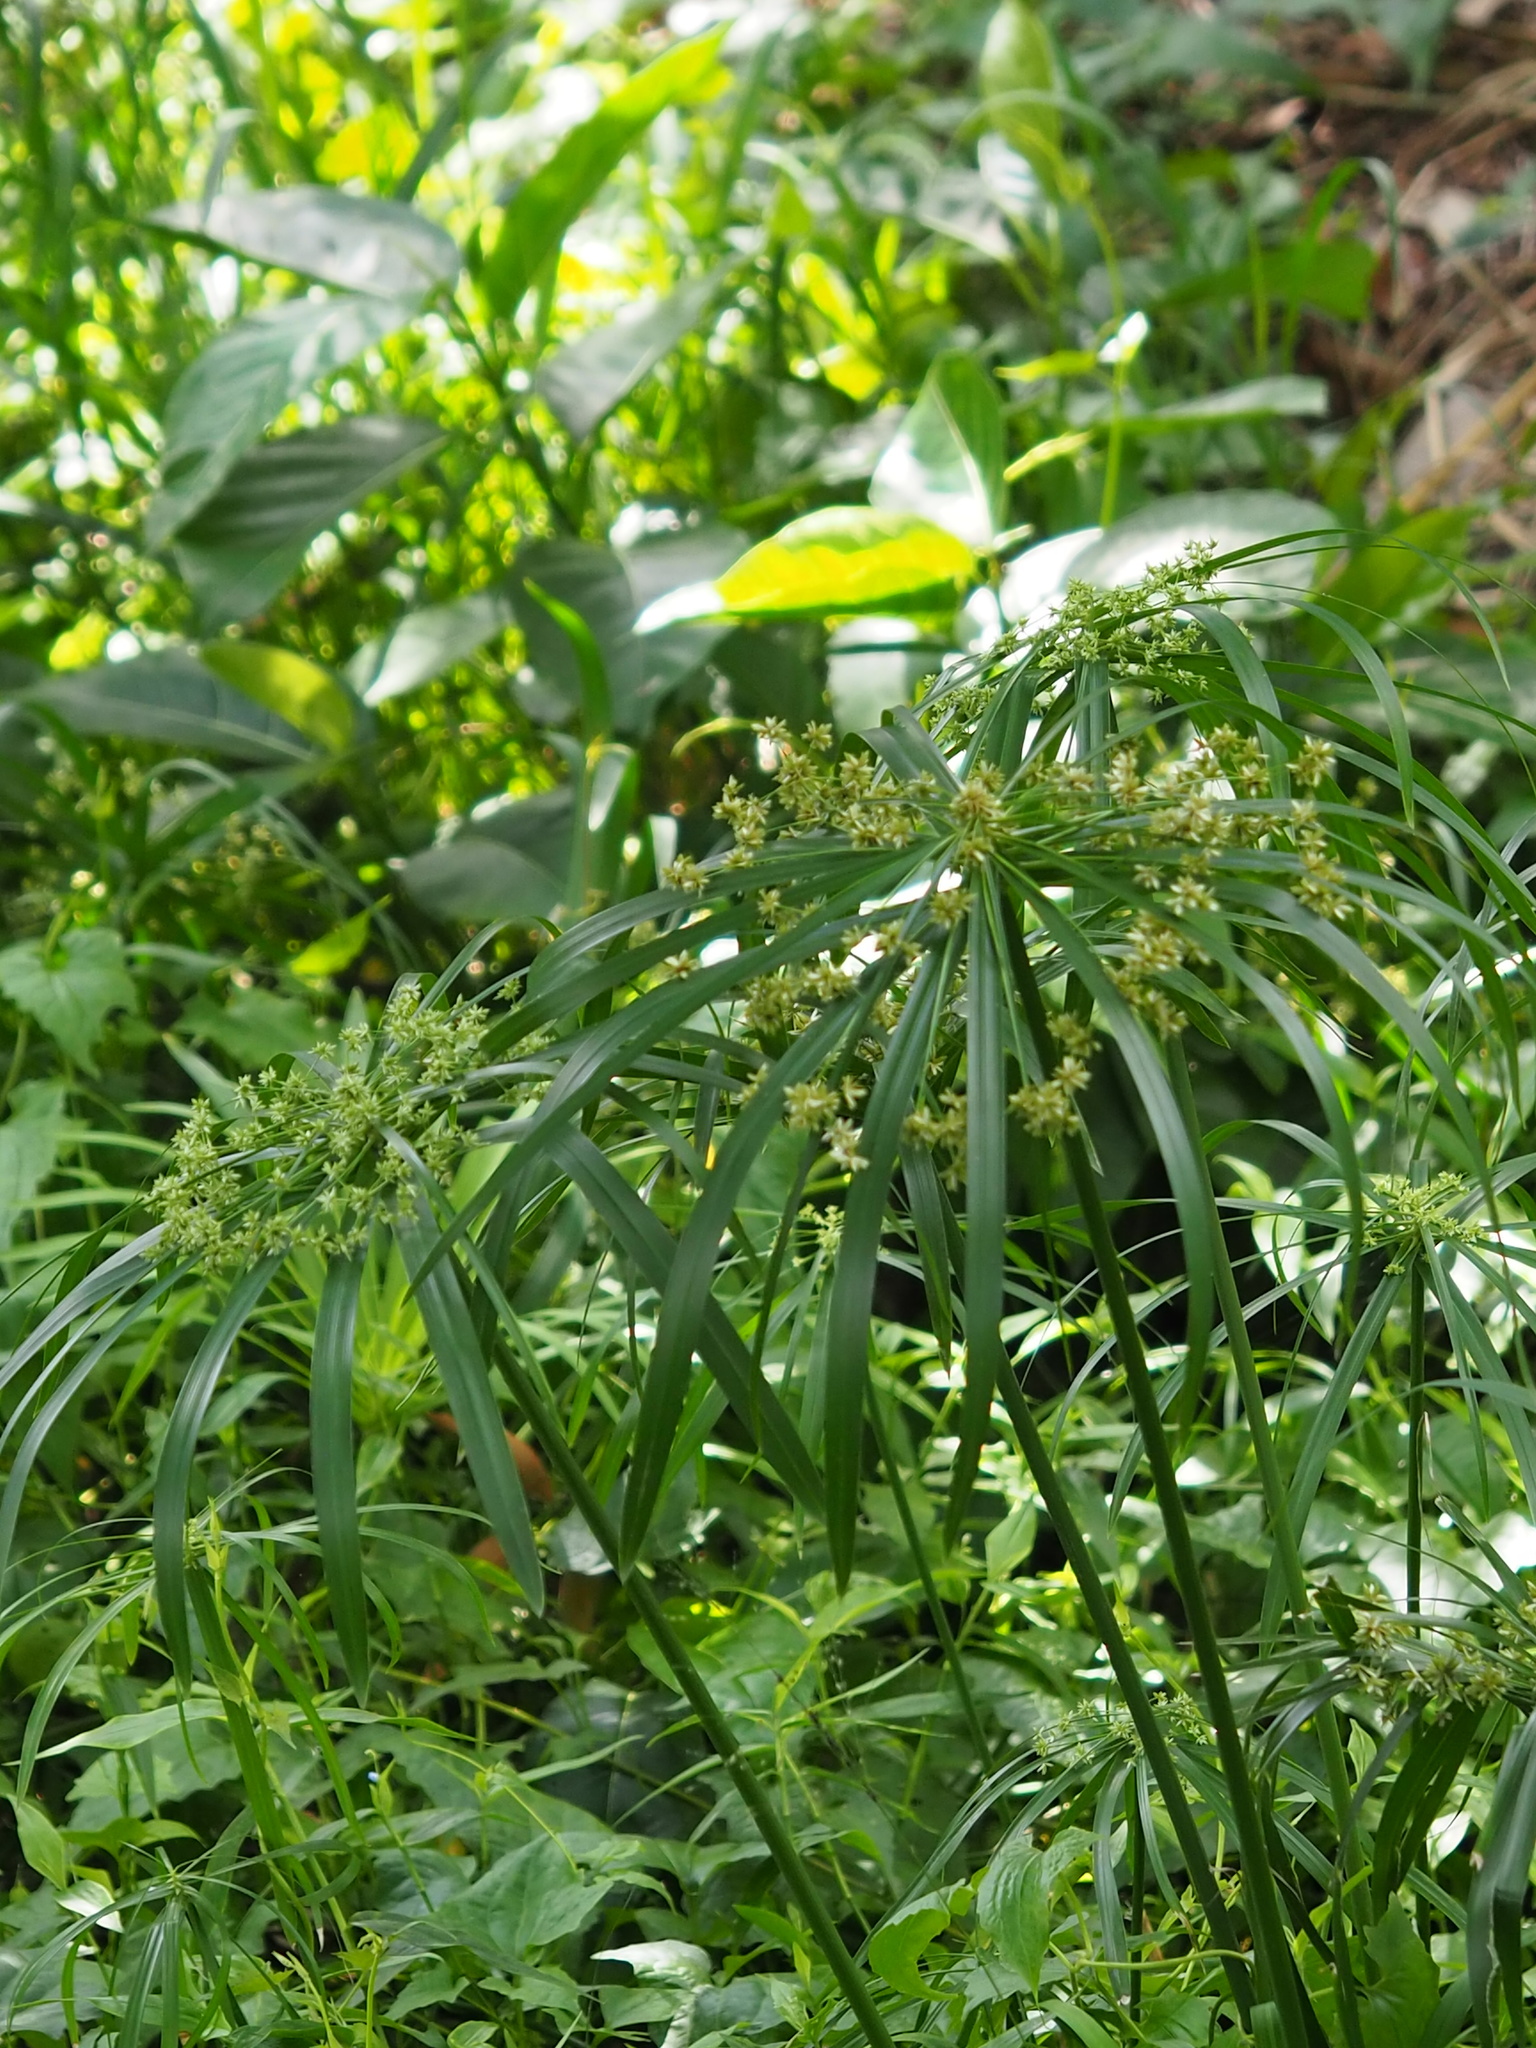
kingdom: Plantae
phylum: Tracheophyta
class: Liliopsida
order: Poales
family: Cyperaceae
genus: Cyperus
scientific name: Cyperus alternifolius
